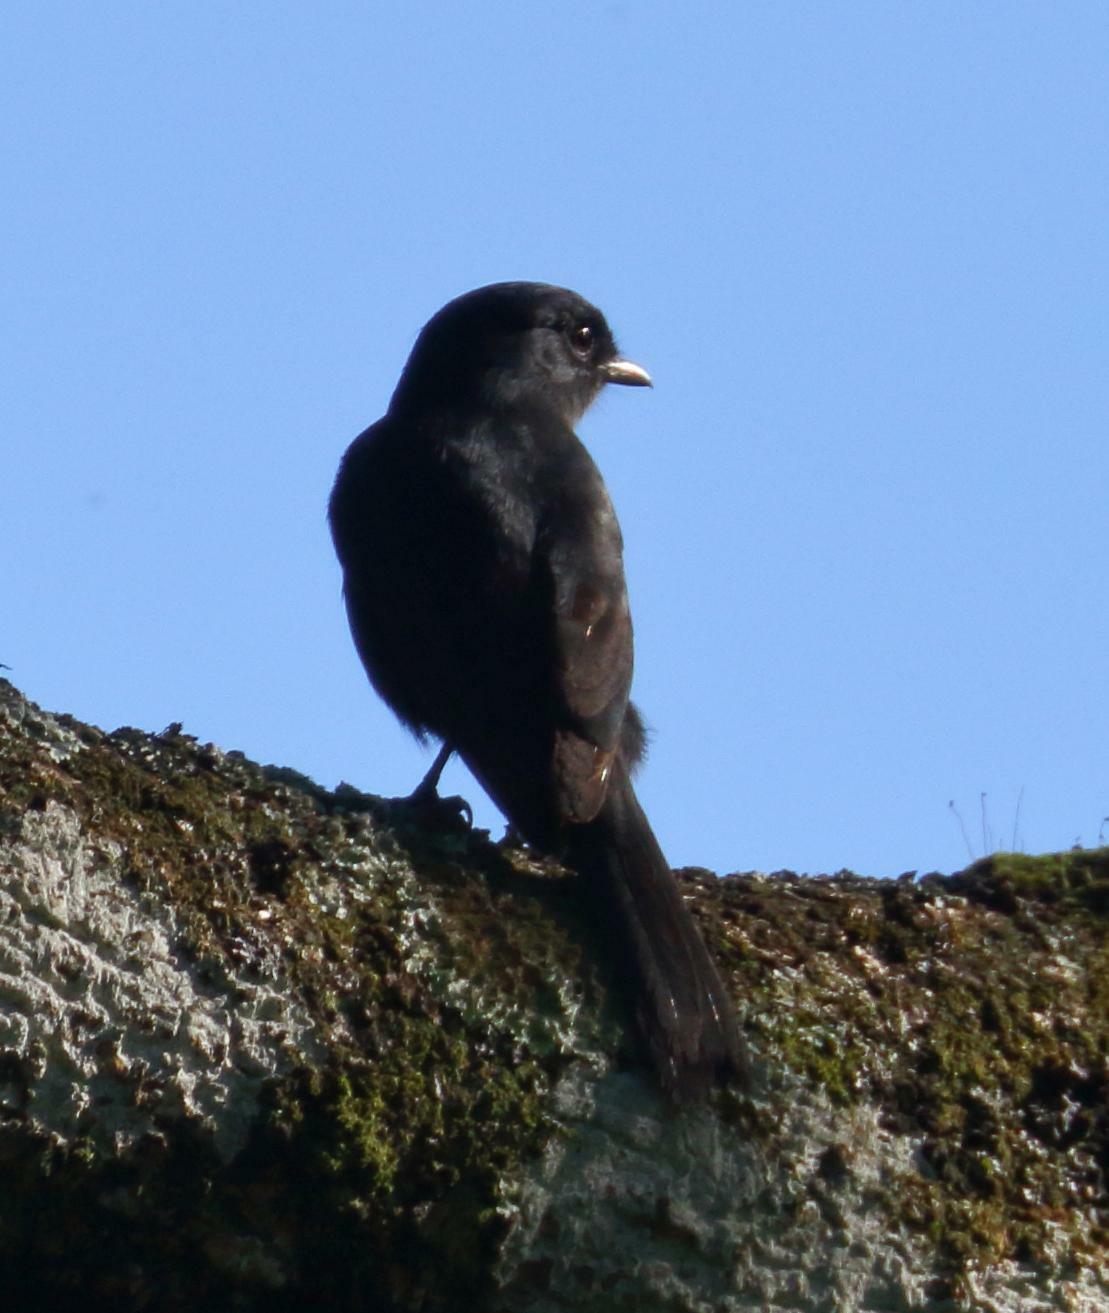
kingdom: Animalia
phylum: Chordata
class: Aves
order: Passeriformes
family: Muscicapidae
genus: Melaenornis
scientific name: Melaenornis pammelaina
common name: Southern black flycatcher
